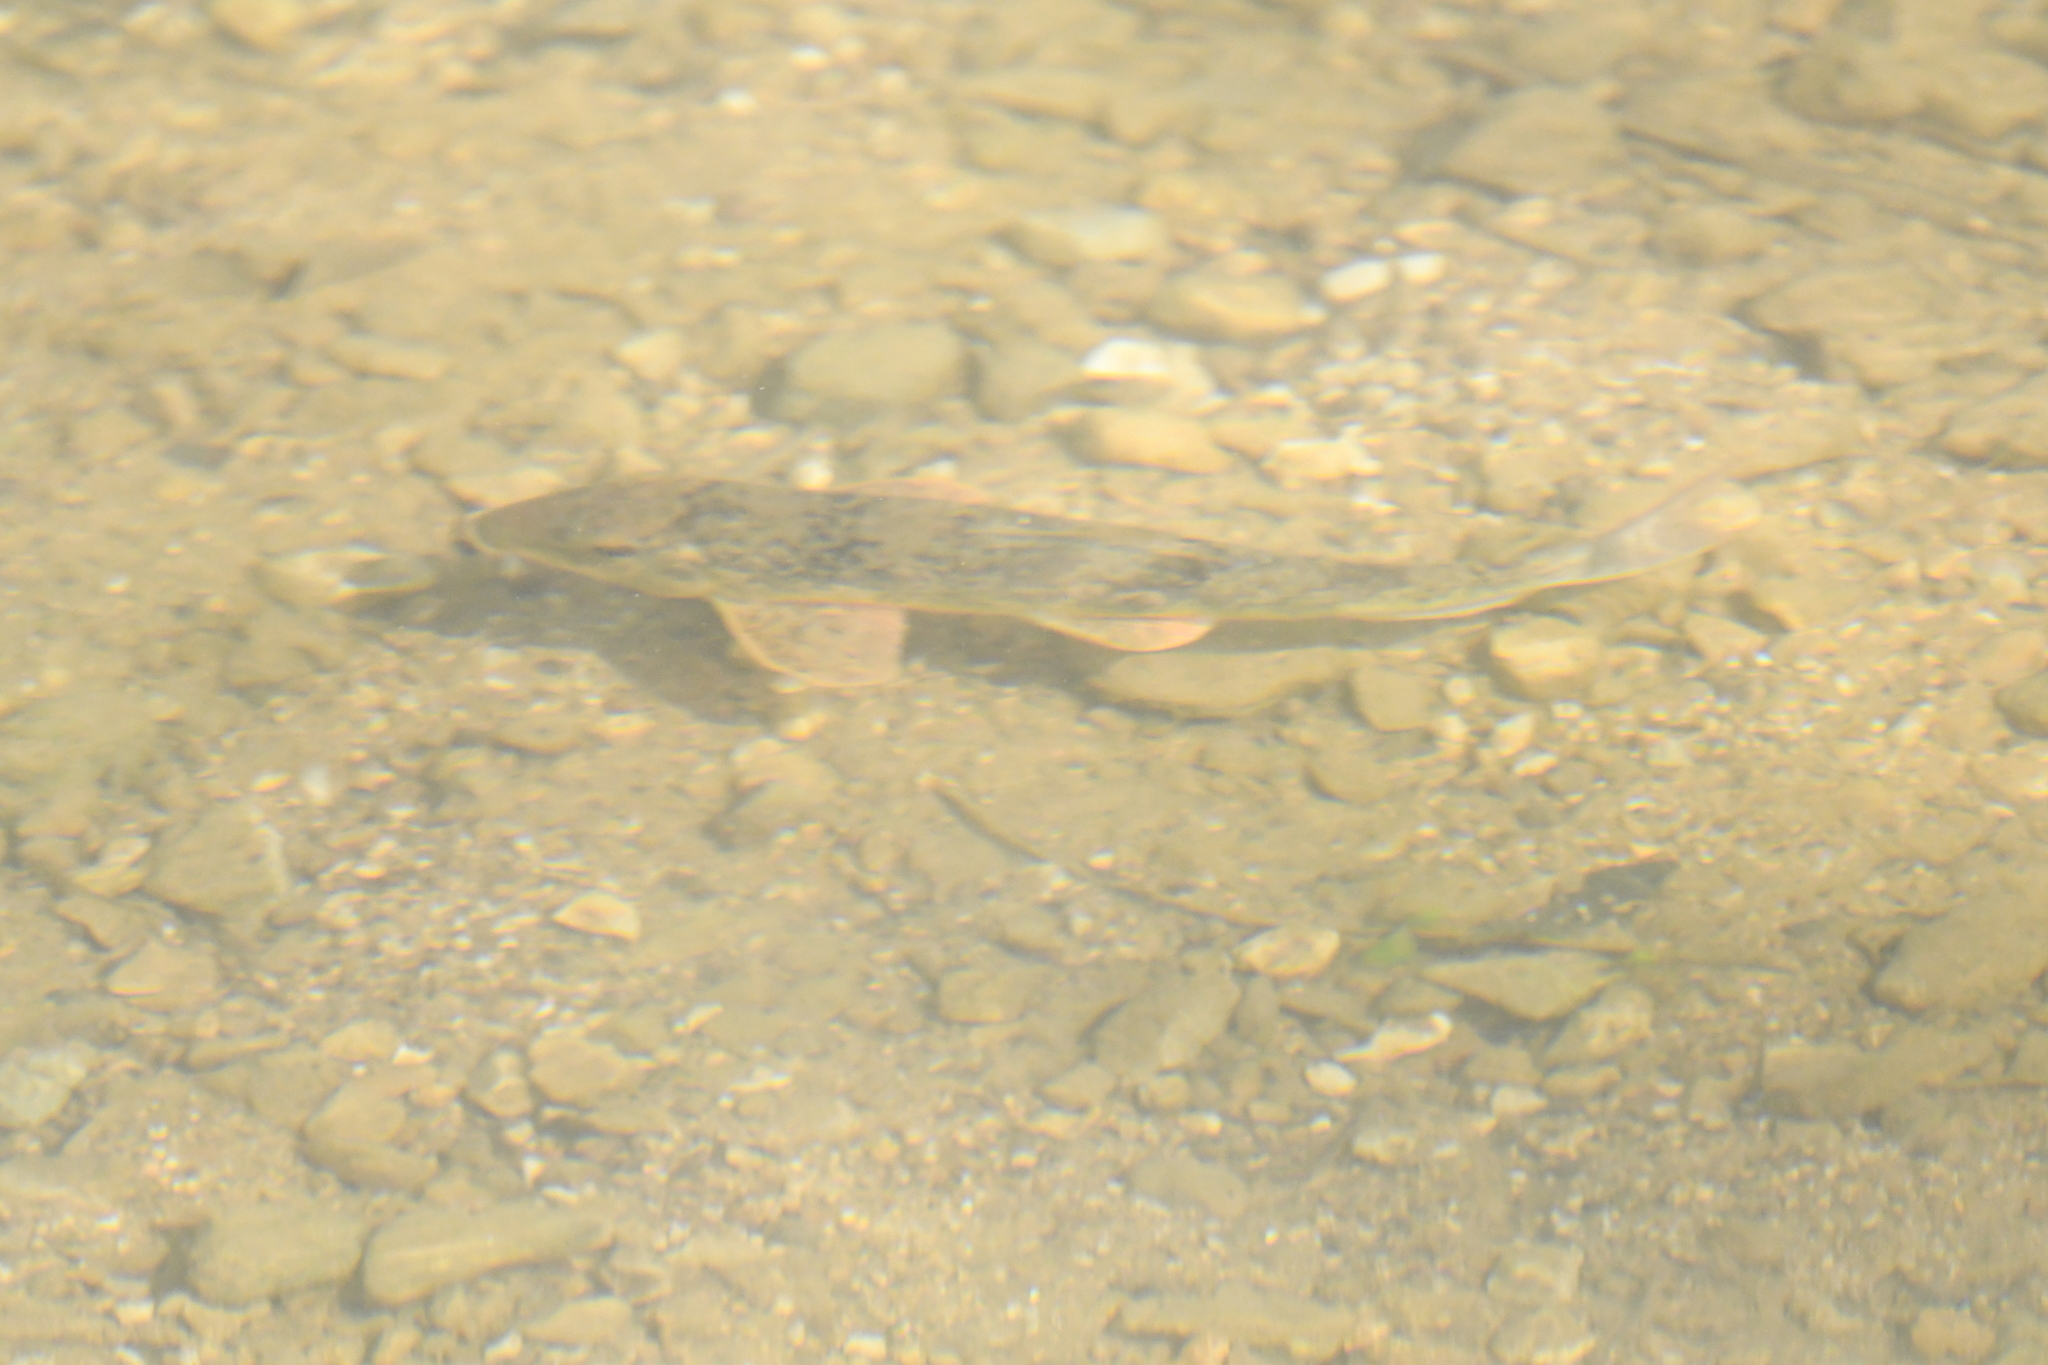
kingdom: Animalia
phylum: Chordata
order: Cypriniformes
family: Catostomidae
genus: Hypentelium
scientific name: Hypentelium nigricans
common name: Northern hog sucker
